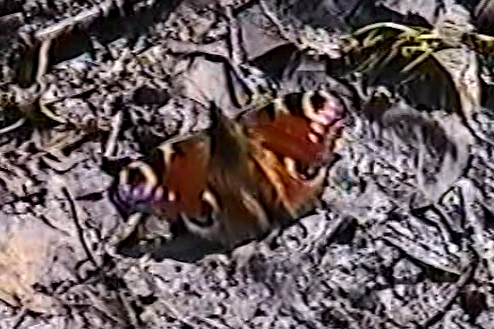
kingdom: Animalia
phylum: Arthropoda
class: Insecta
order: Lepidoptera
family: Nymphalidae
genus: Aglais
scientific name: Aglais io
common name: Peacock
